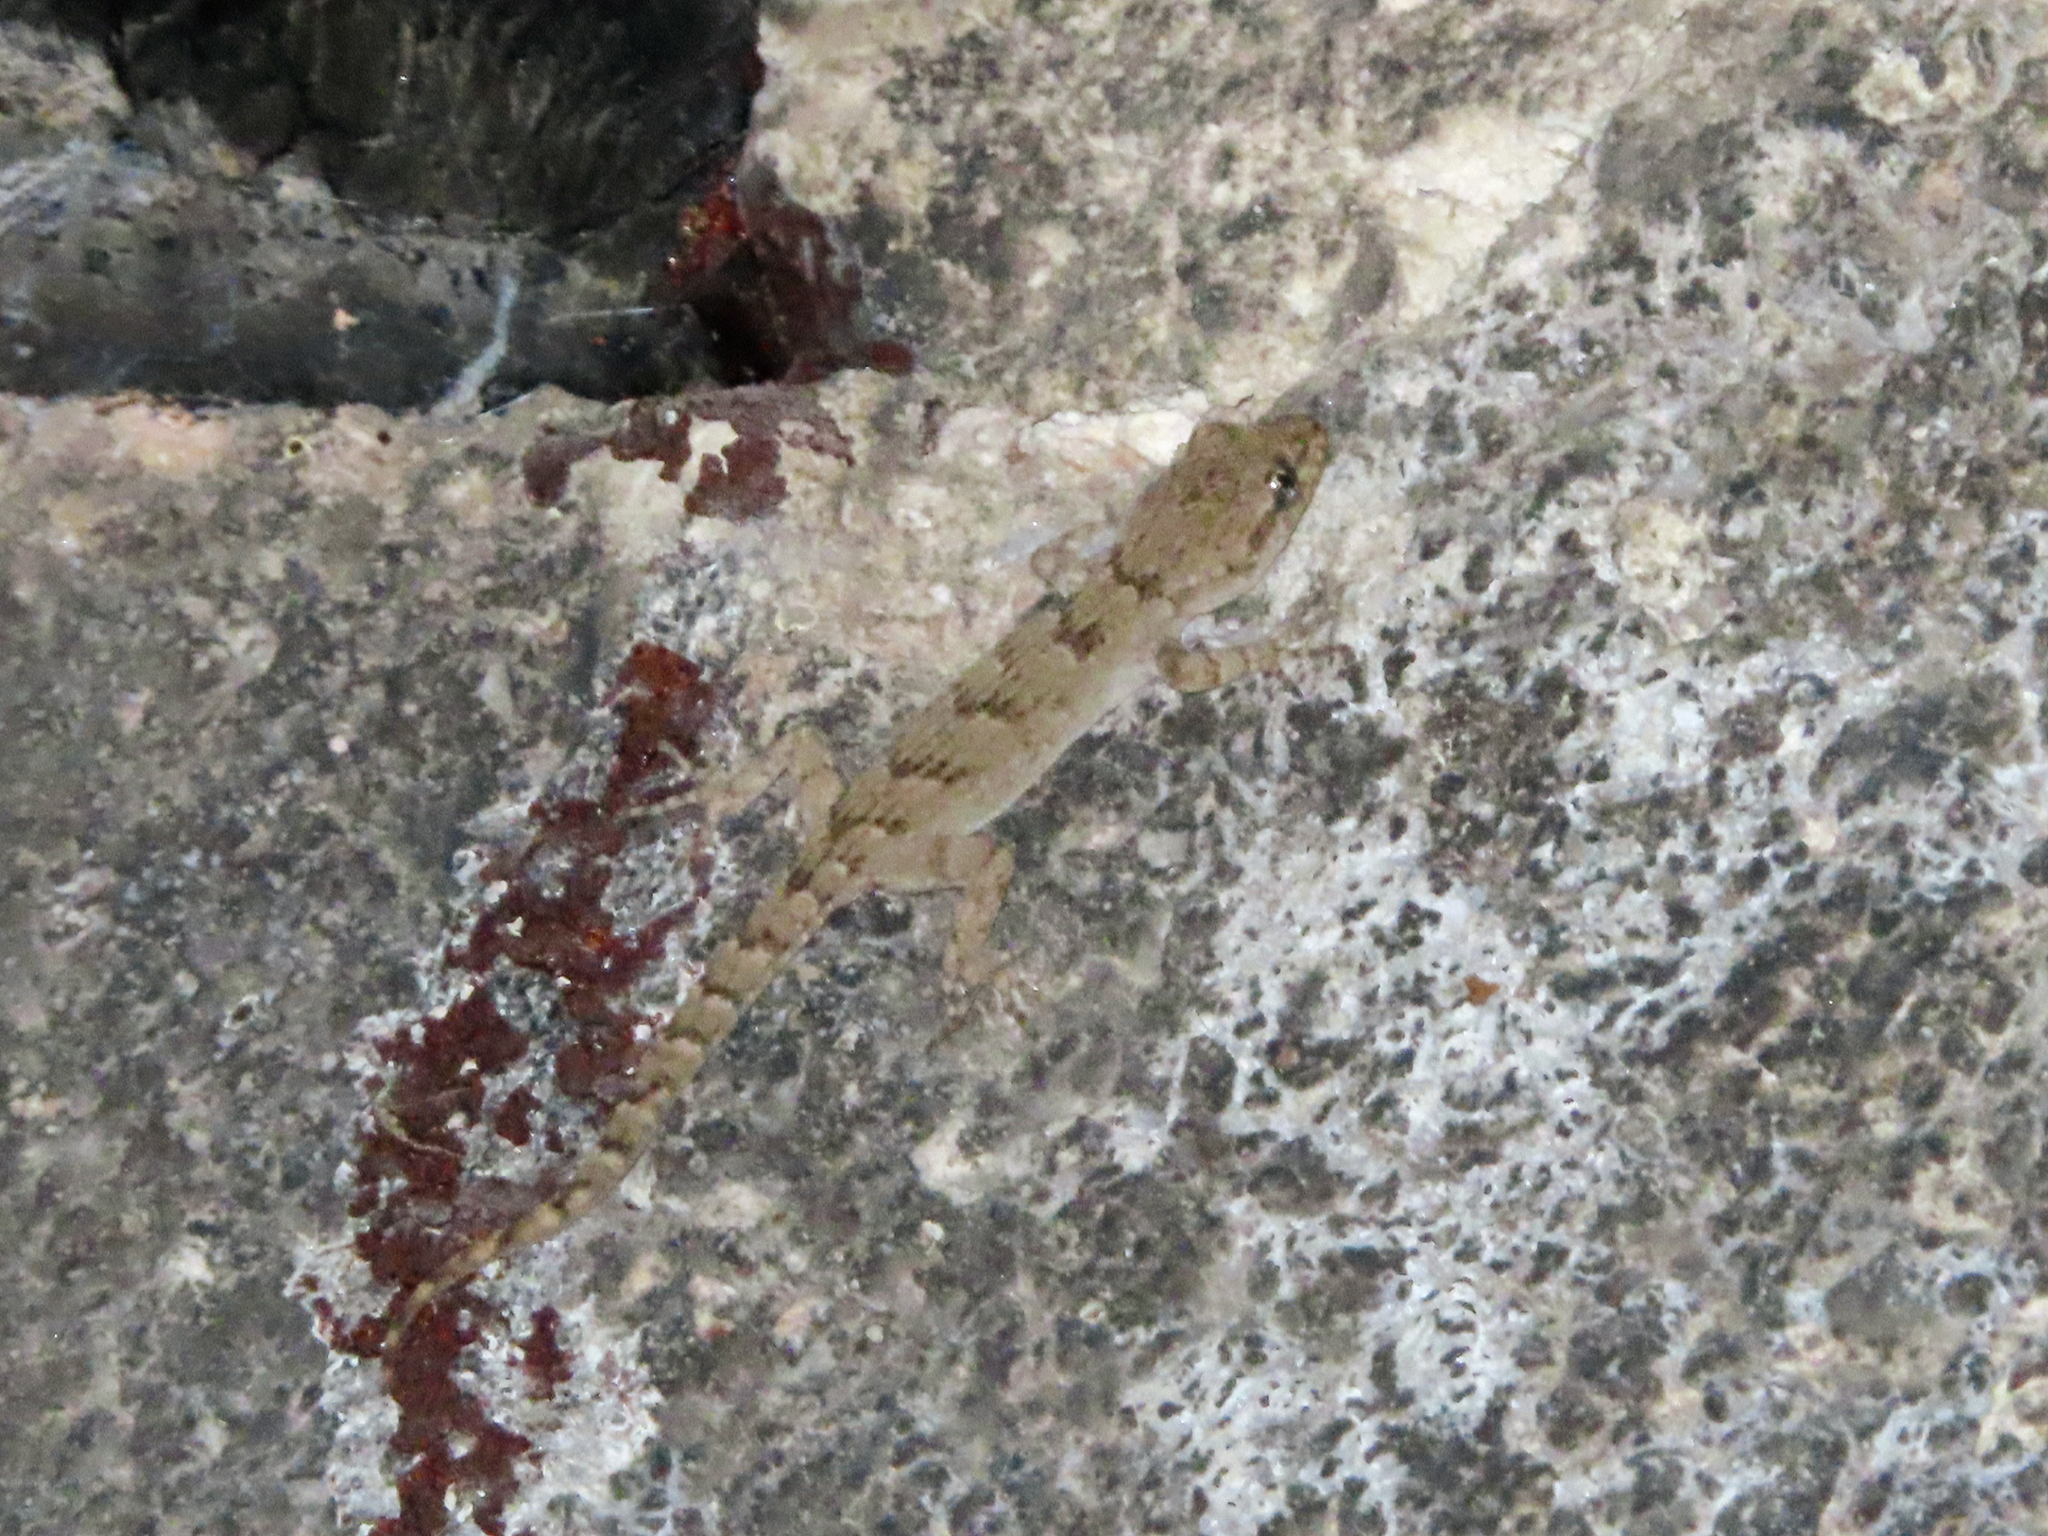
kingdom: Animalia
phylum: Chordata
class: Squamata
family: Gekkonidae
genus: Mediodactylus
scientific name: Mediodactylus kotschyi
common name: Kotschy's gecko
